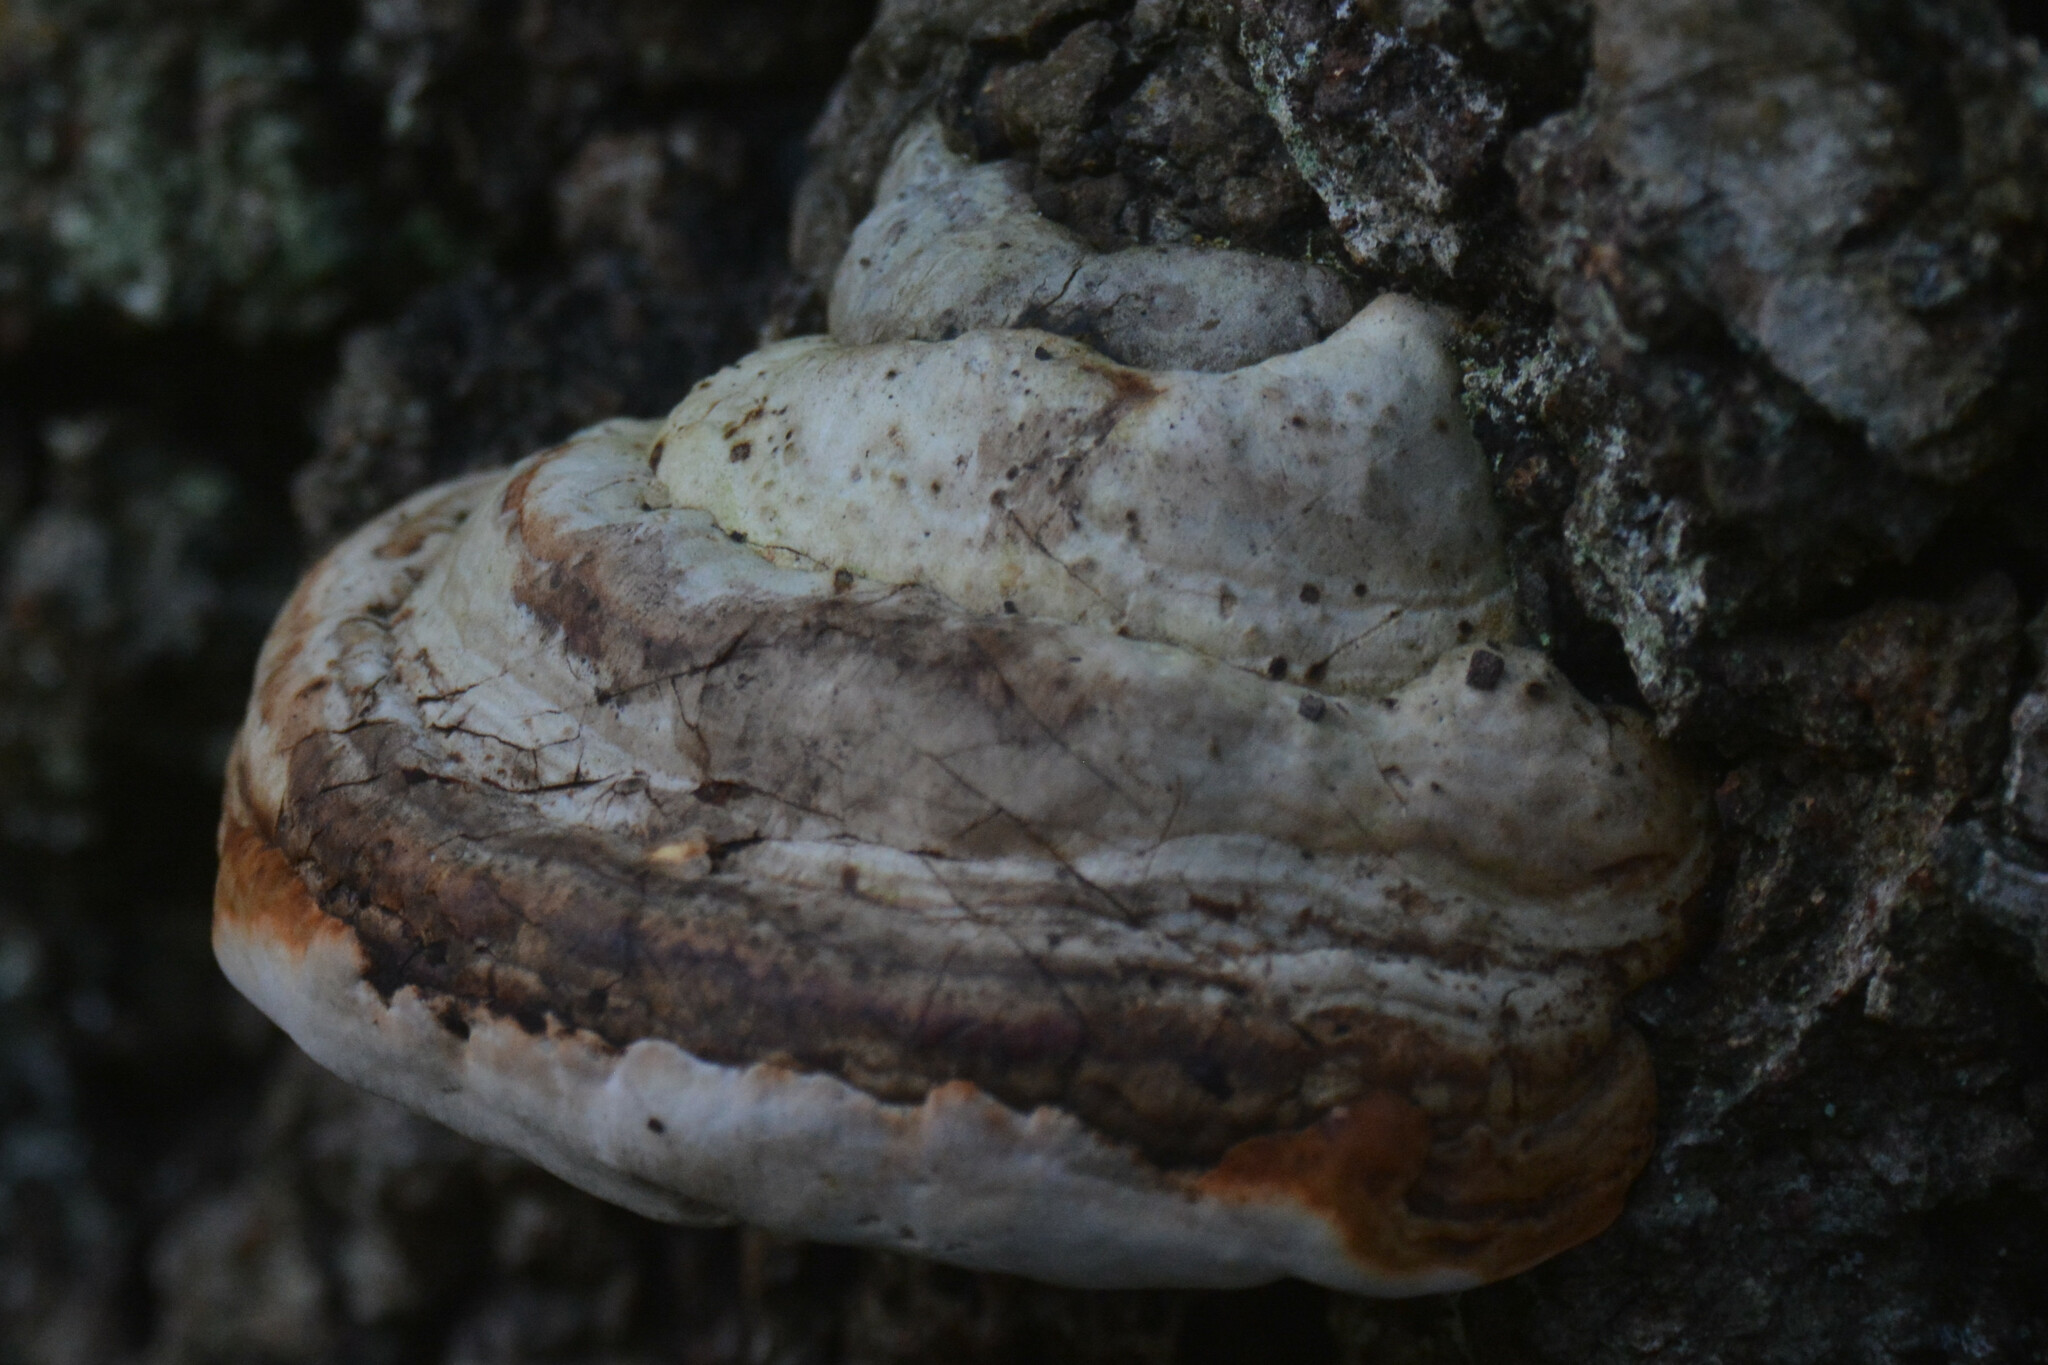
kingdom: Fungi
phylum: Basidiomycota
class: Agaricomycetes
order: Polyporales
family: Polyporaceae
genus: Fomes
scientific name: Fomes fomentarius
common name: Hoof fungus
